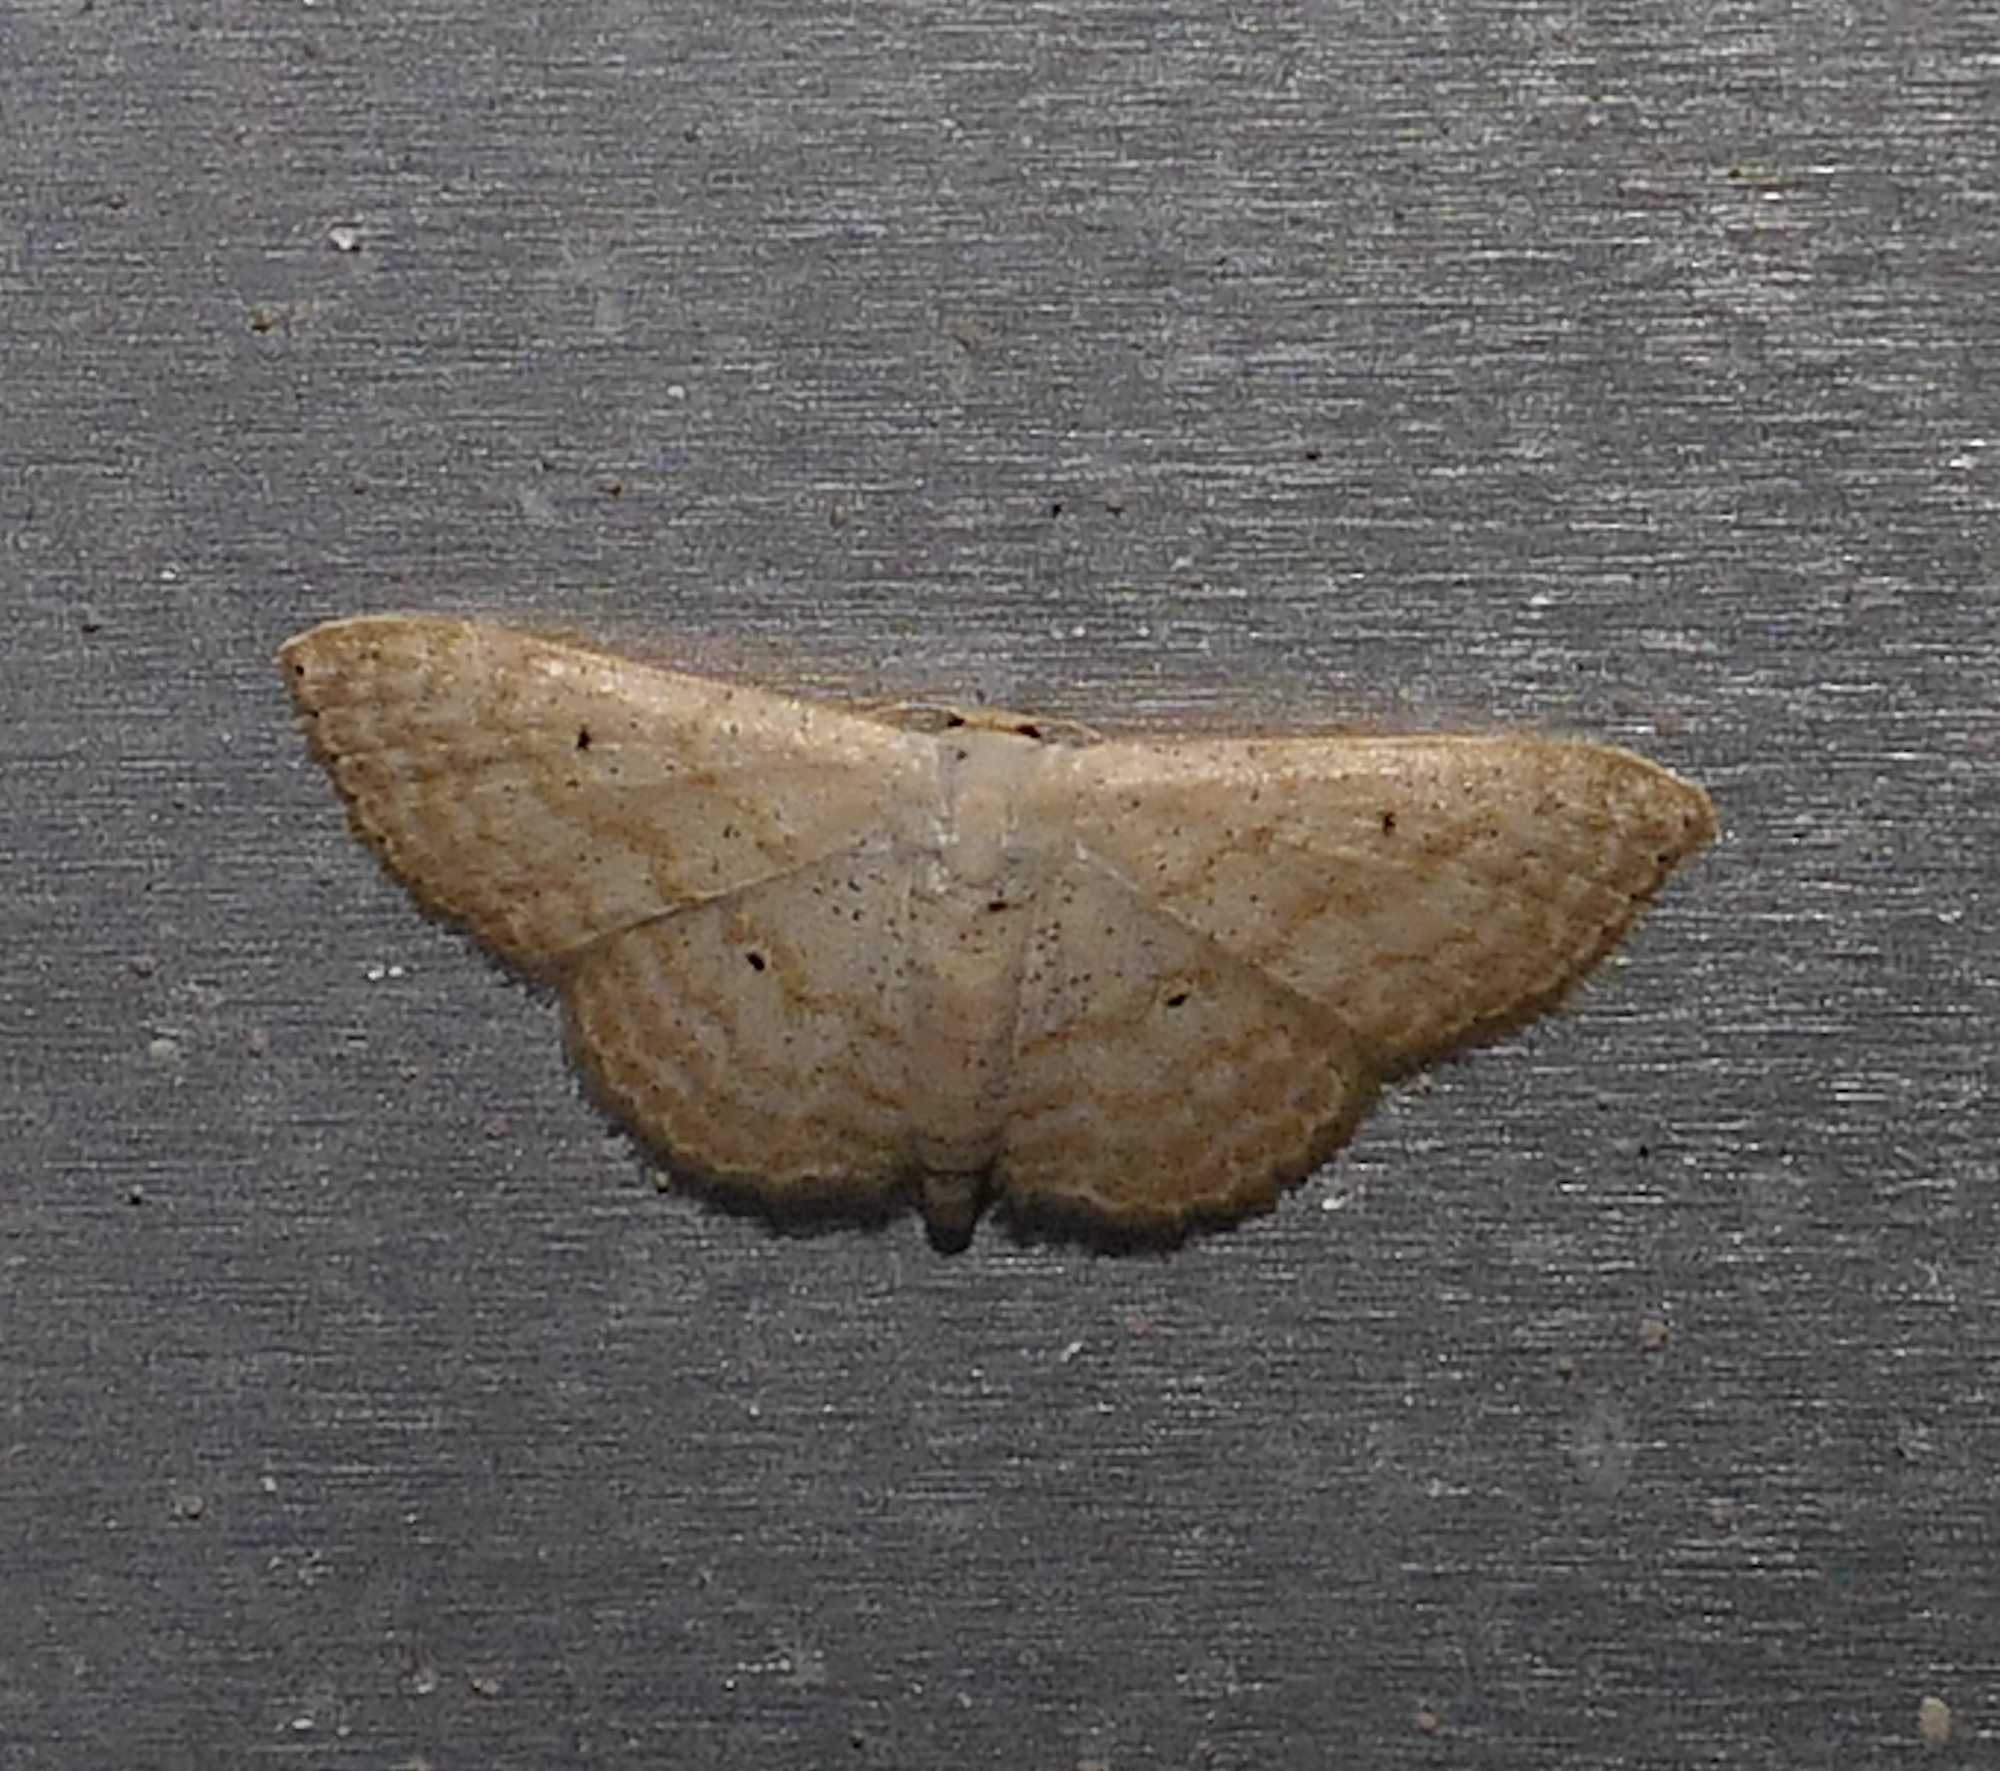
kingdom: Animalia
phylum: Arthropoda
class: Insecta
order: Lepidoptera
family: Geometridae
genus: Scopula
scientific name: Scopula benitaria
